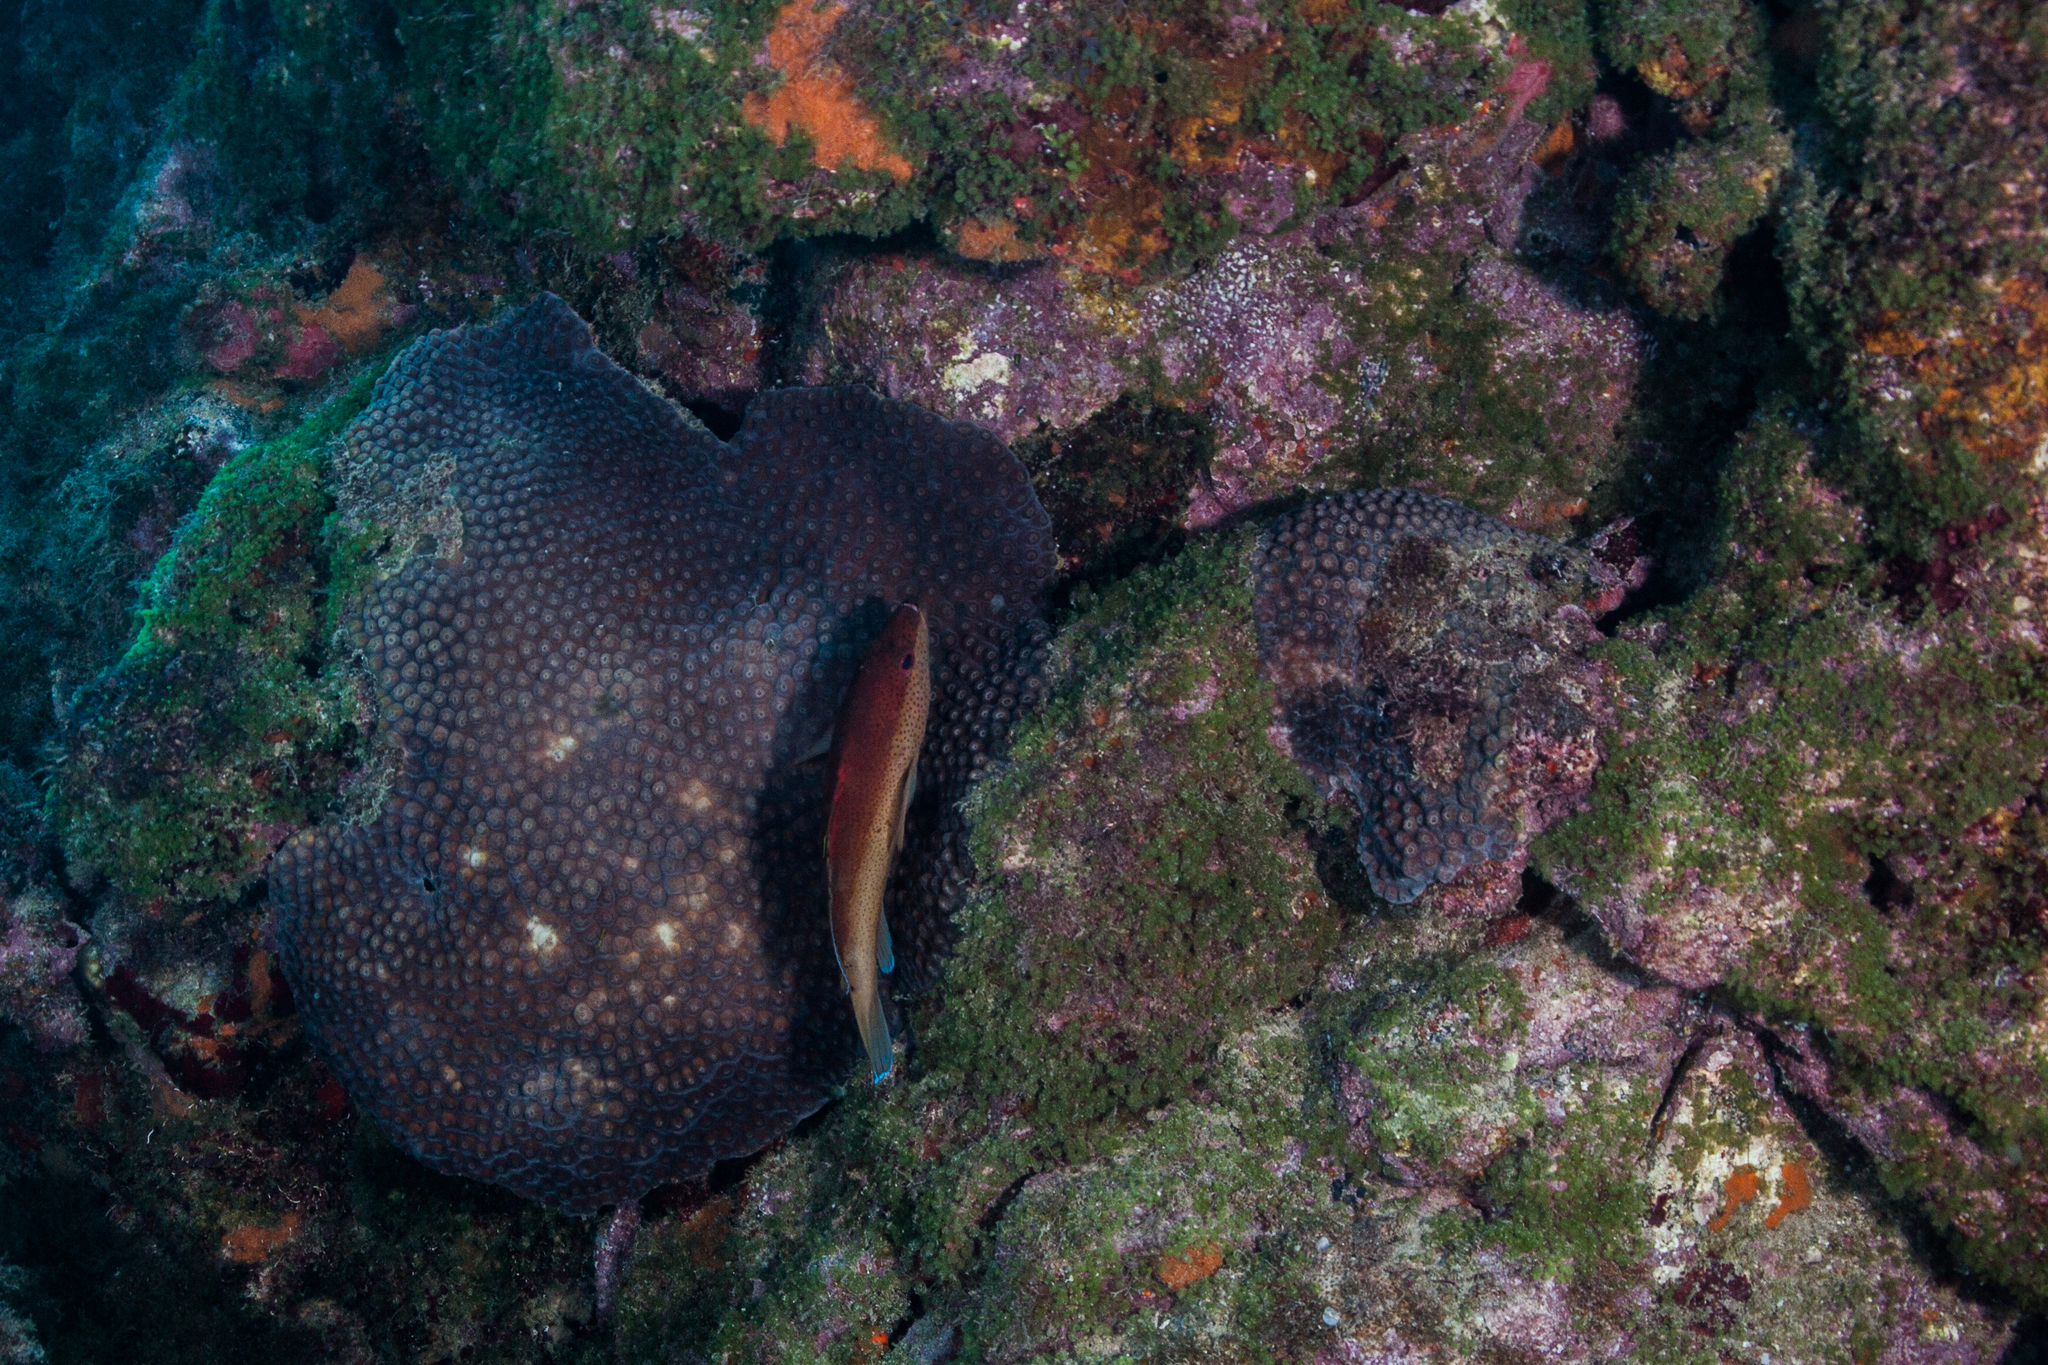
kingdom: Animalia
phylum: Chordata
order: Perciformes
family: Serranidae
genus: Cephalopholis
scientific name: Cephalopholis fulva
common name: Butterfish
